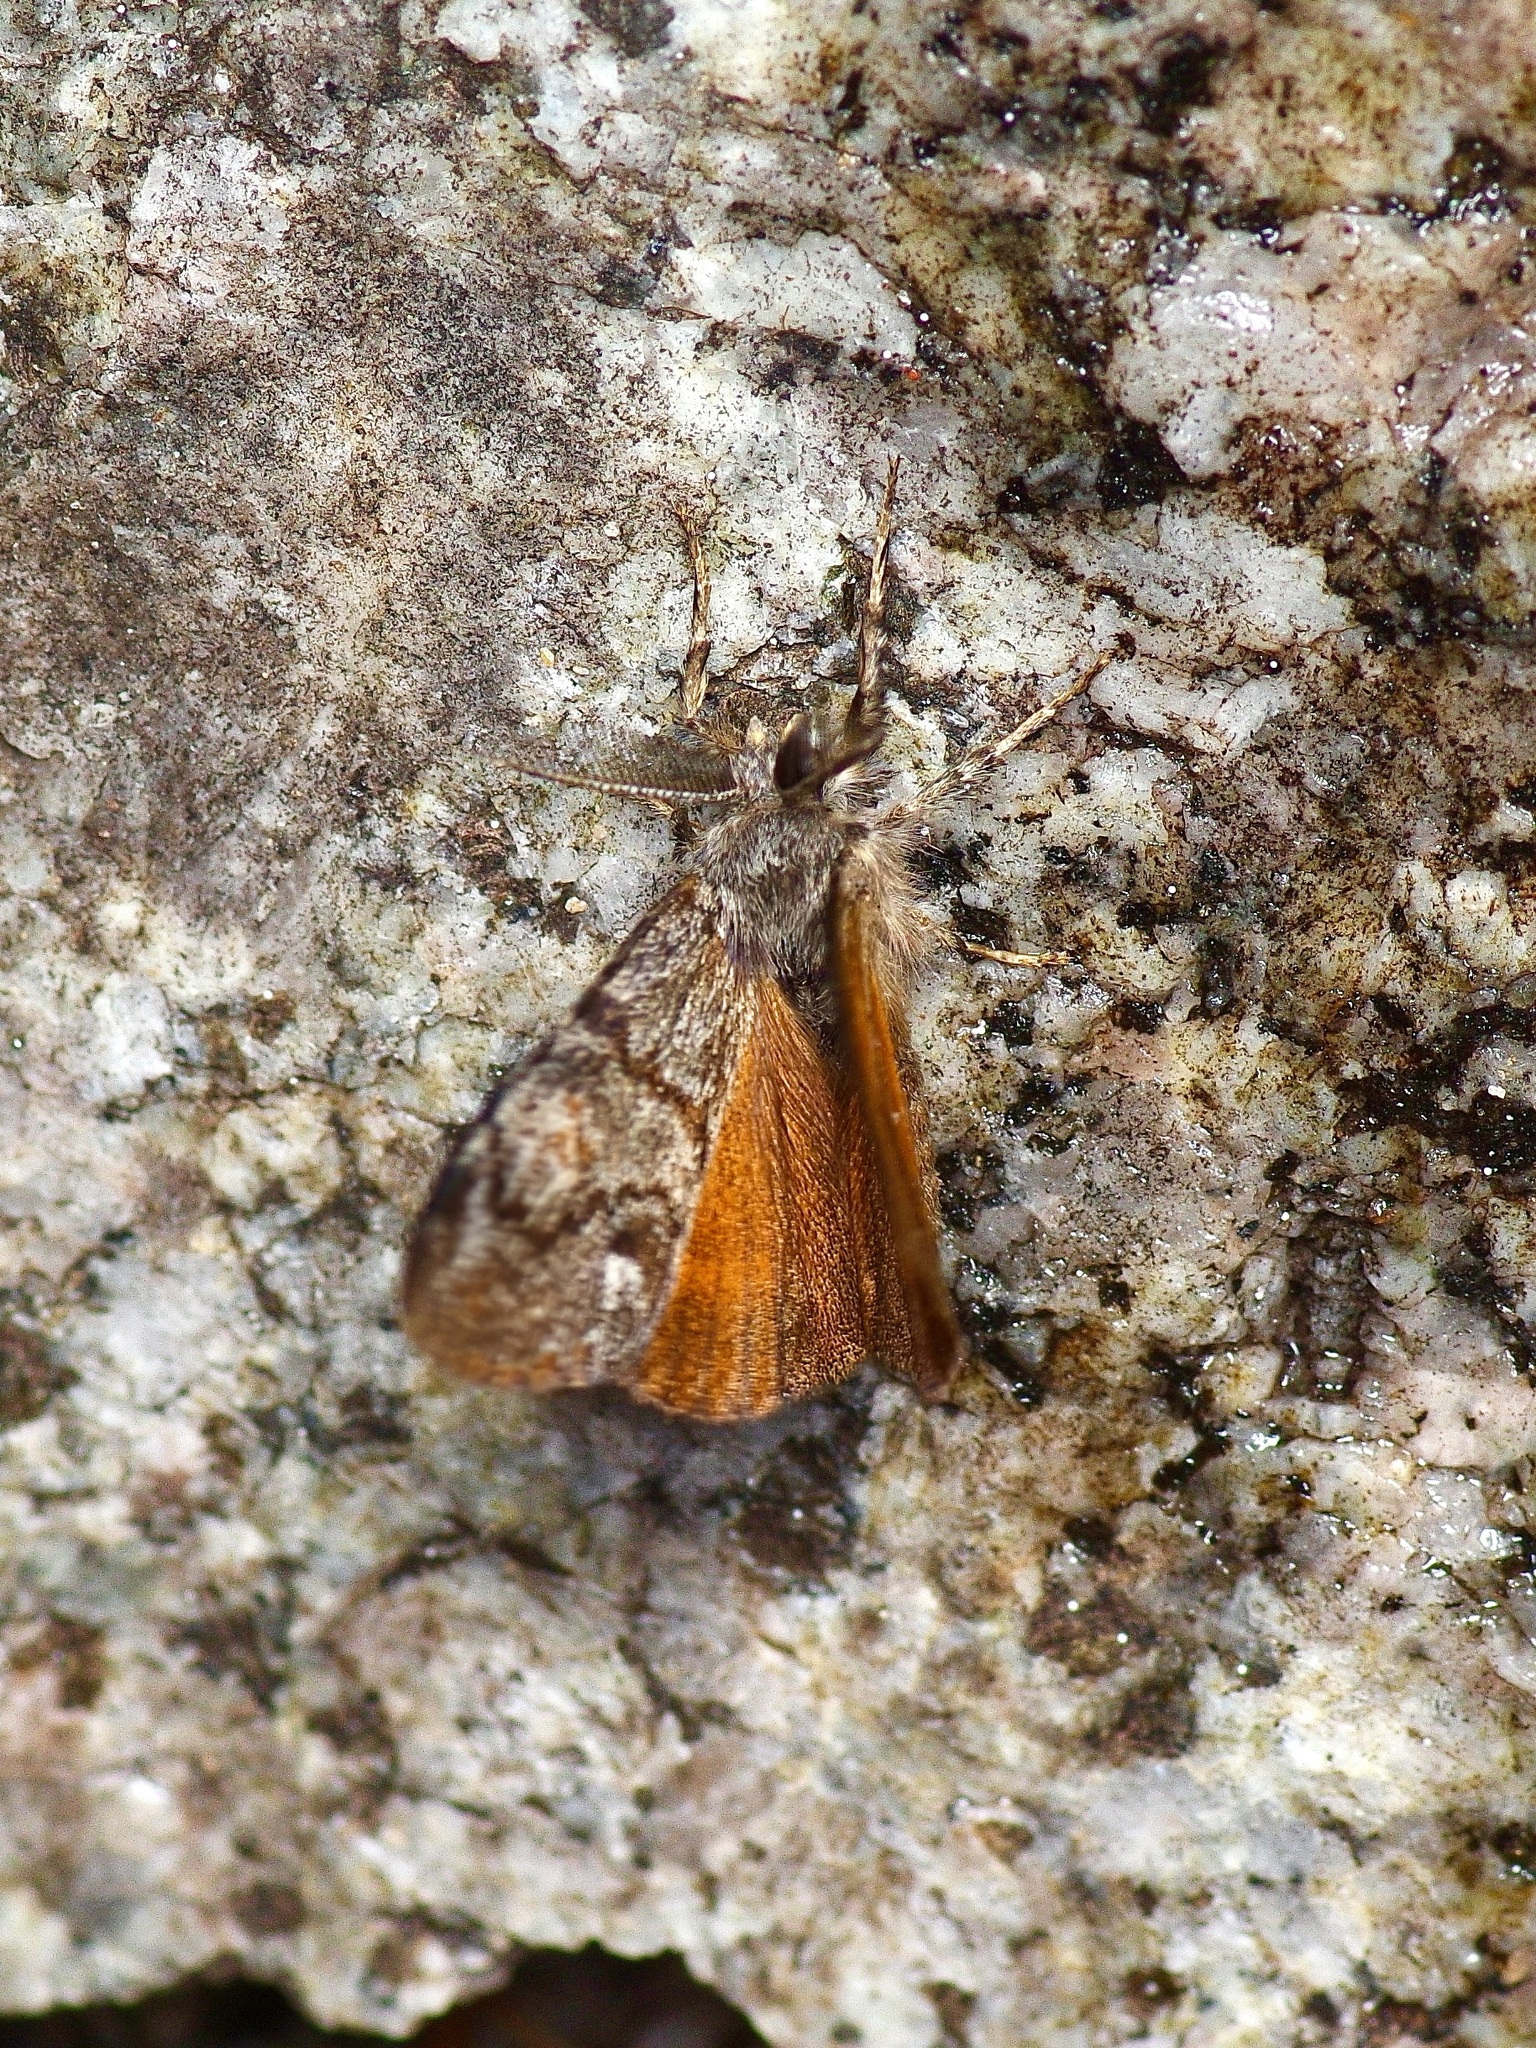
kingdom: Animalia
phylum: Arthropoda
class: Insecta
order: Lepidoptera
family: Erebidae
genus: Orgyia
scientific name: Orgyia pseudotsugata
